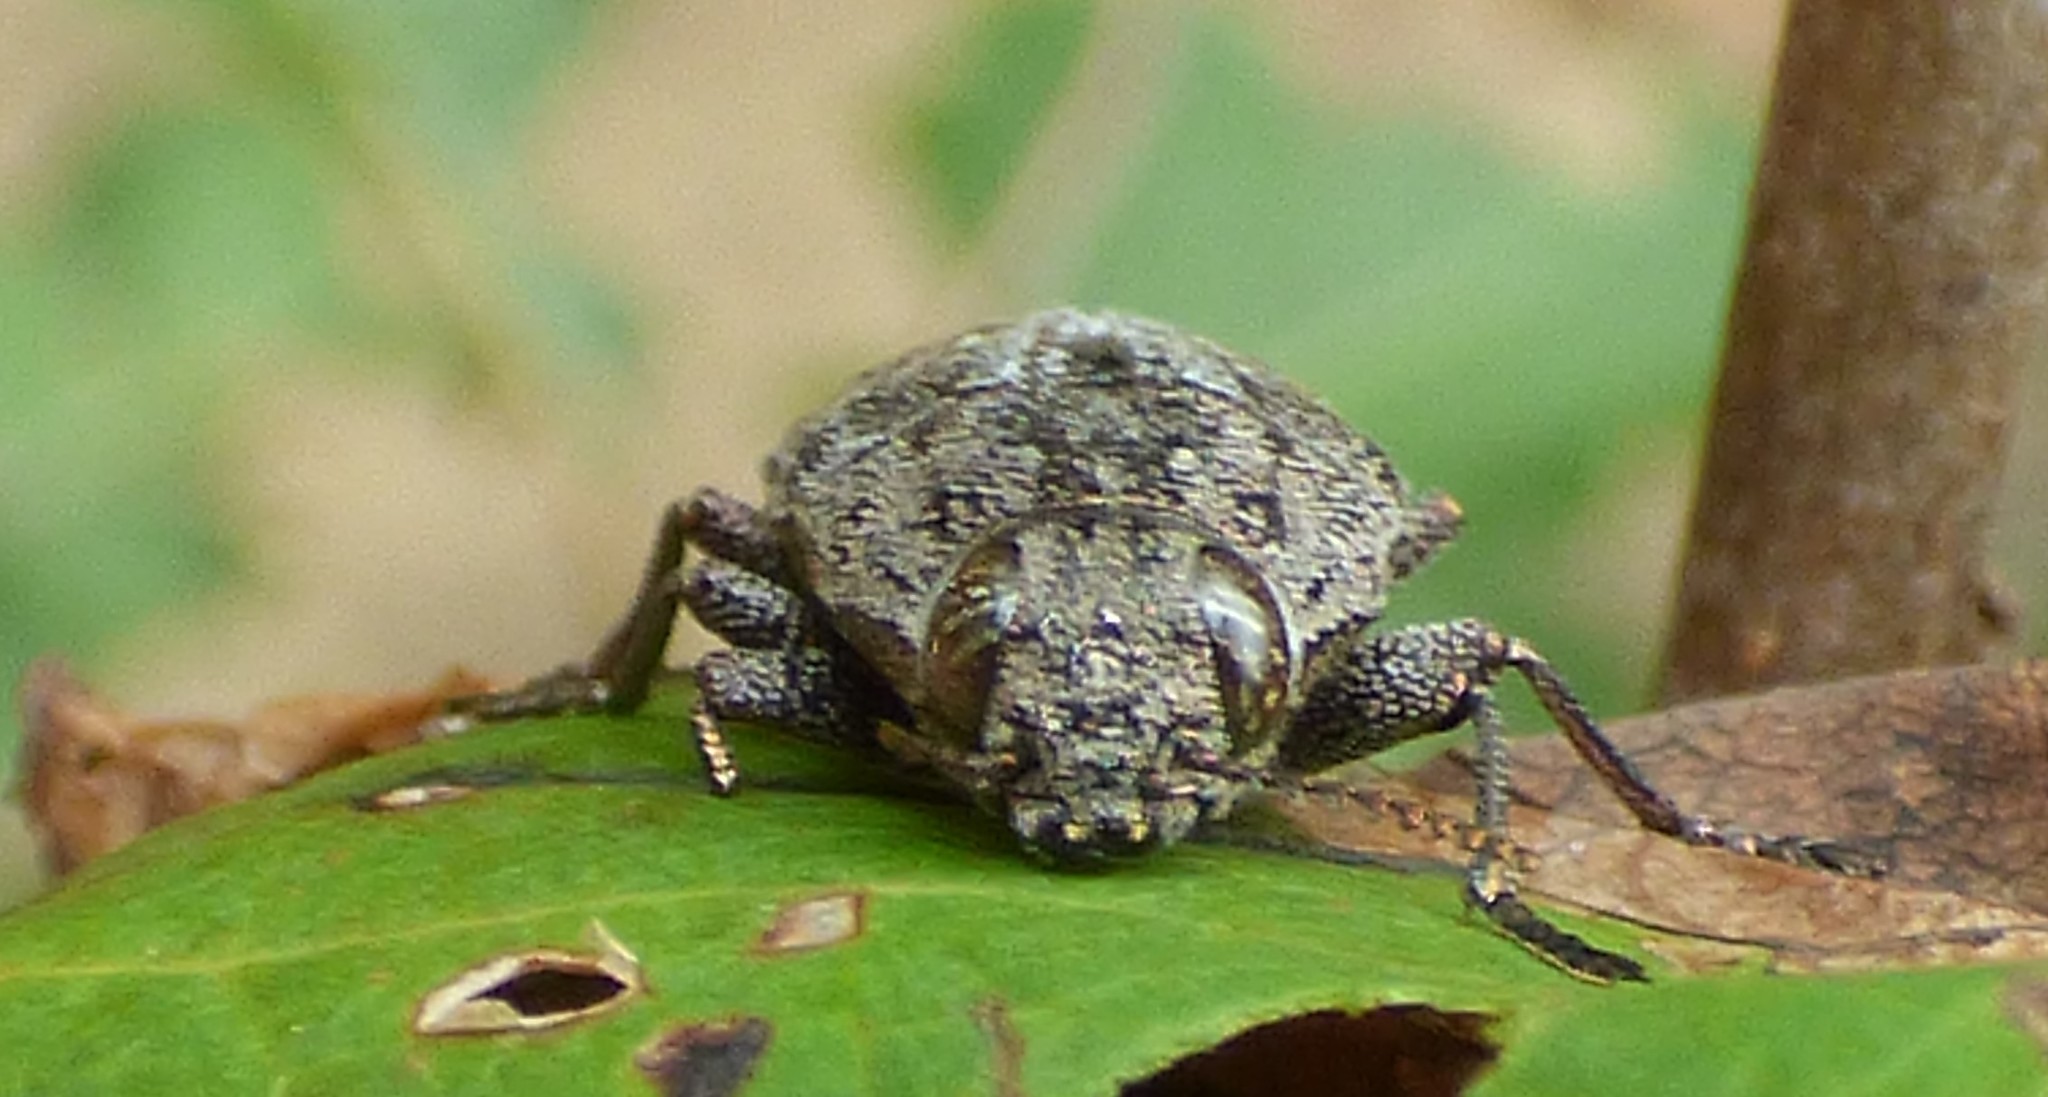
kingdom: Animalia
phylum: Arthropoda
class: Insecta
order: Coleoptera
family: Buprestidae
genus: Dicerca
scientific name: Dicerca obscura
